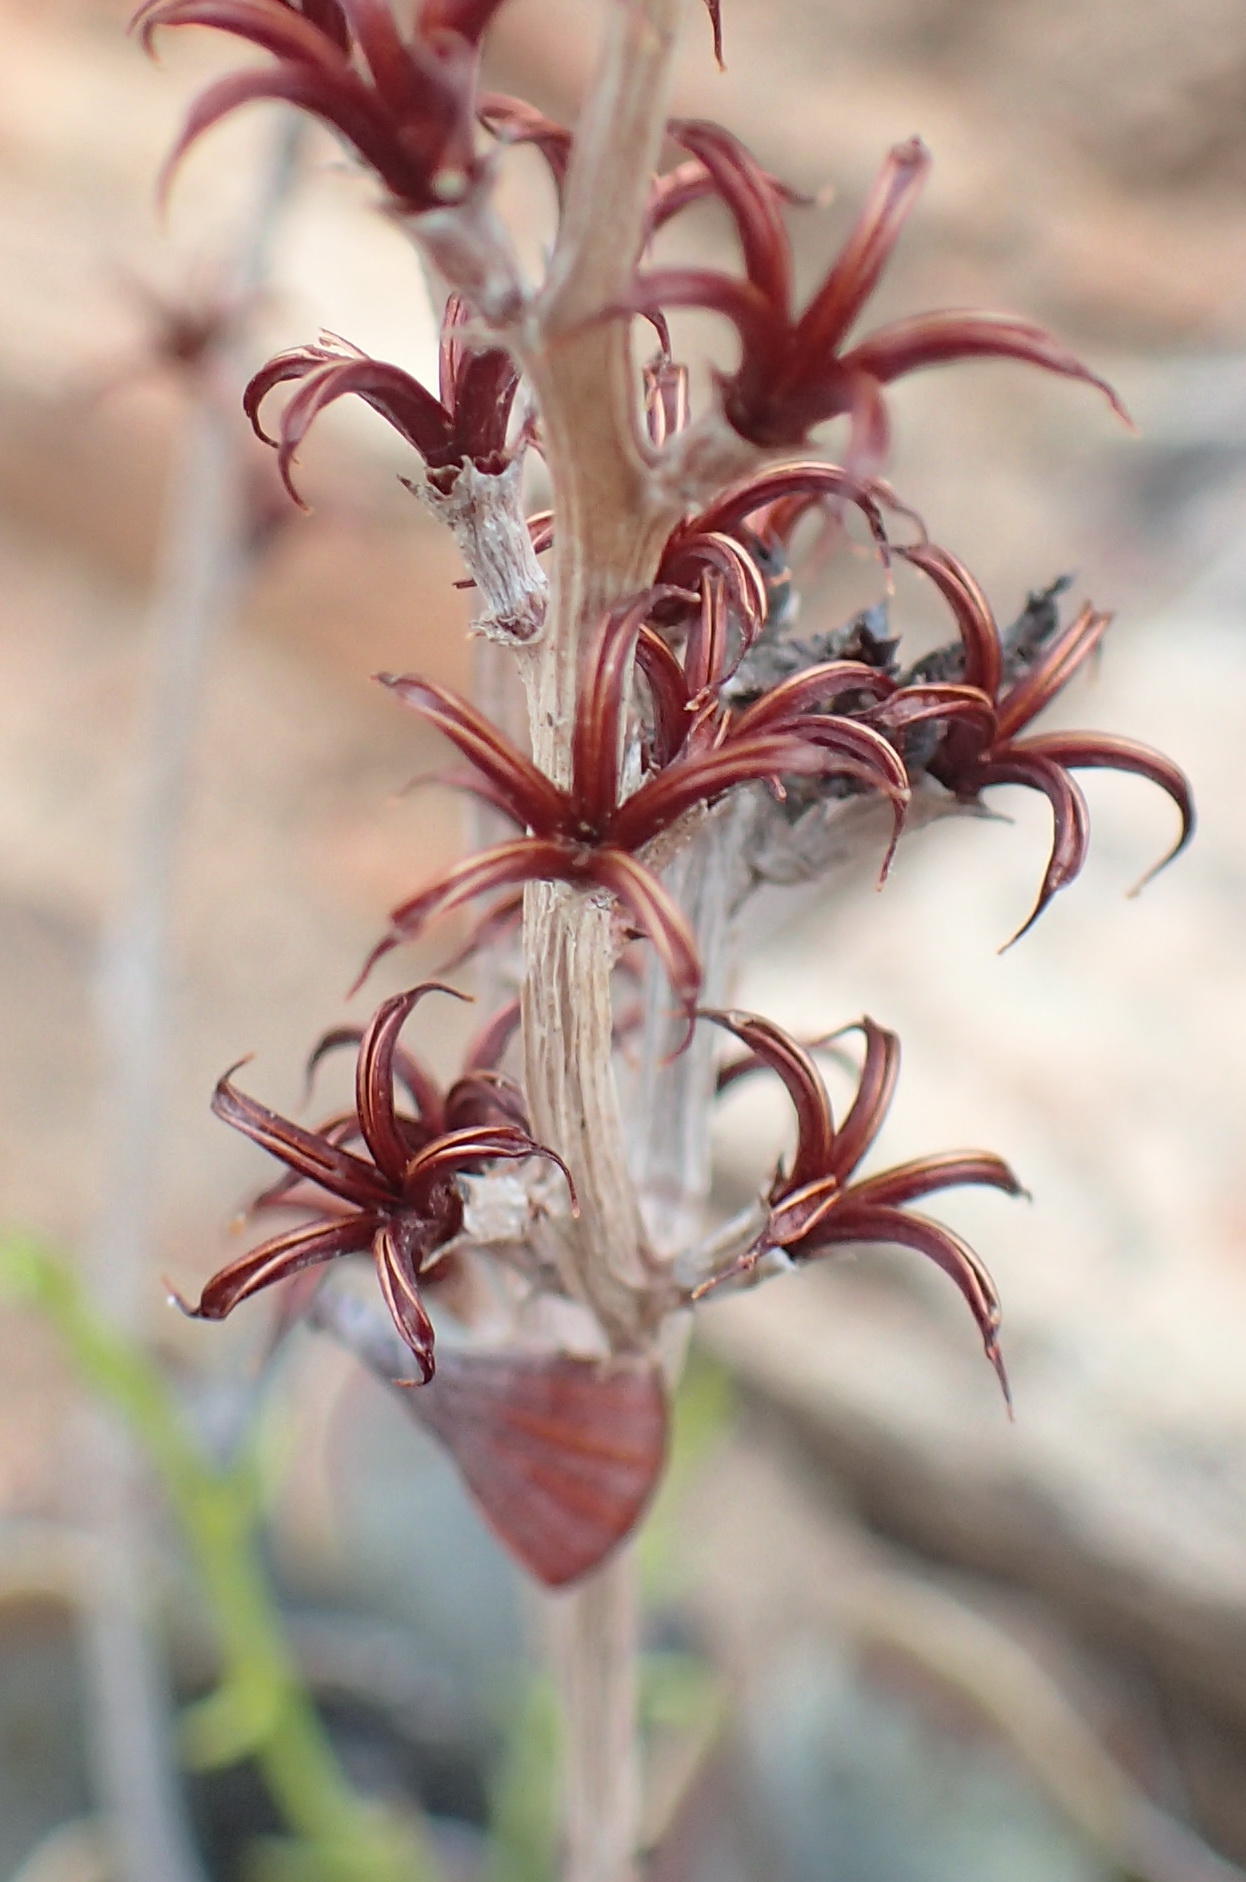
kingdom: Plantae
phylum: Tracheophyta
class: Magnoliopsida
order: Saxifragales
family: Crassulaceae
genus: Adromischus
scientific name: Adromischus triflorus
